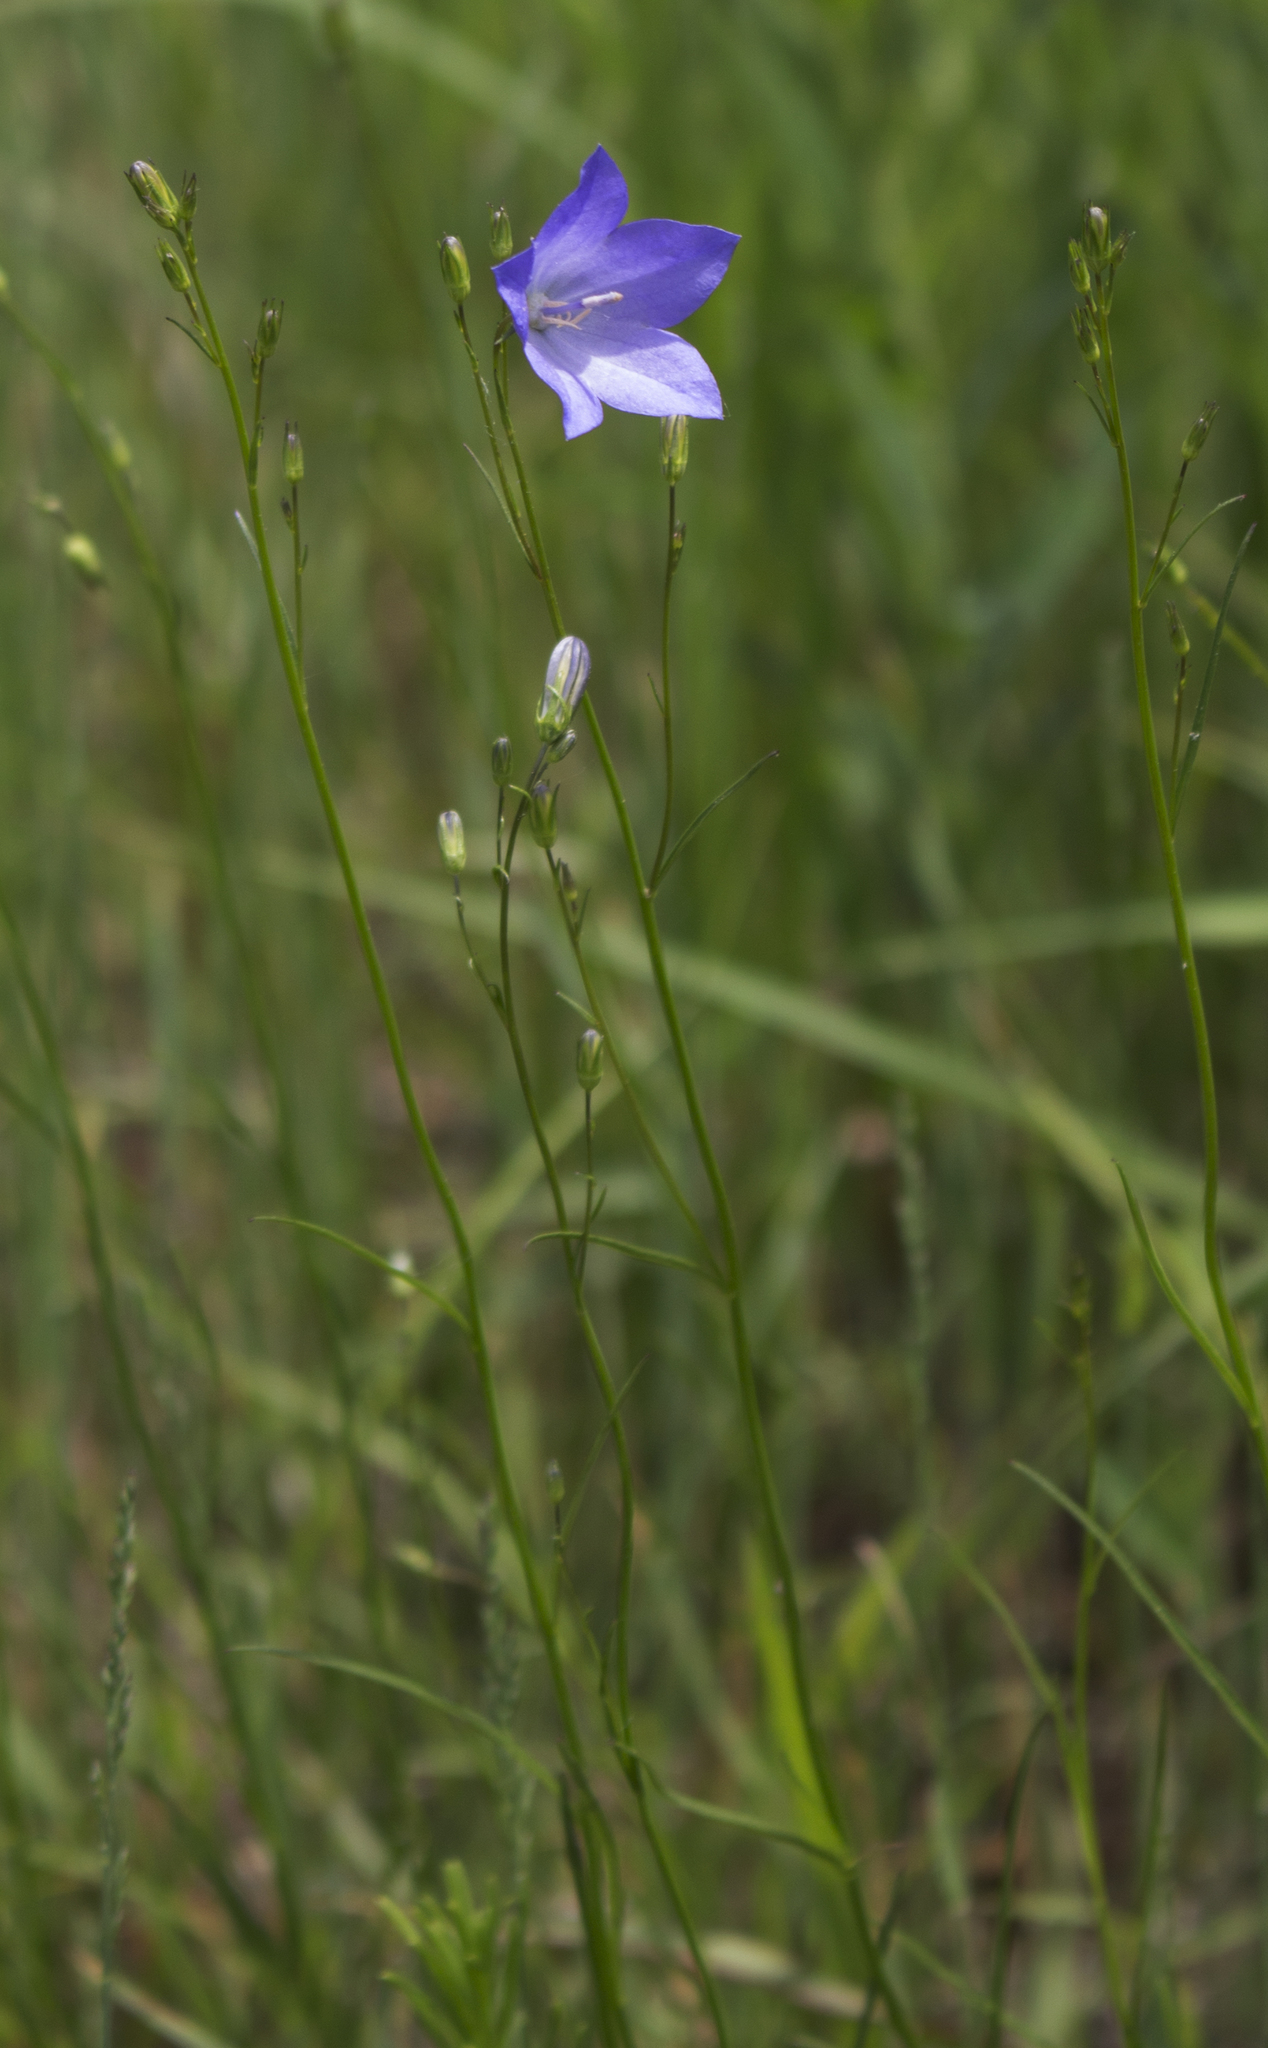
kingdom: Plantae
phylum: Tracheophyta
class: Magnoliopsida
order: Asterales
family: Campanulaceae
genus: Campanula
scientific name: Campanula intercedens
